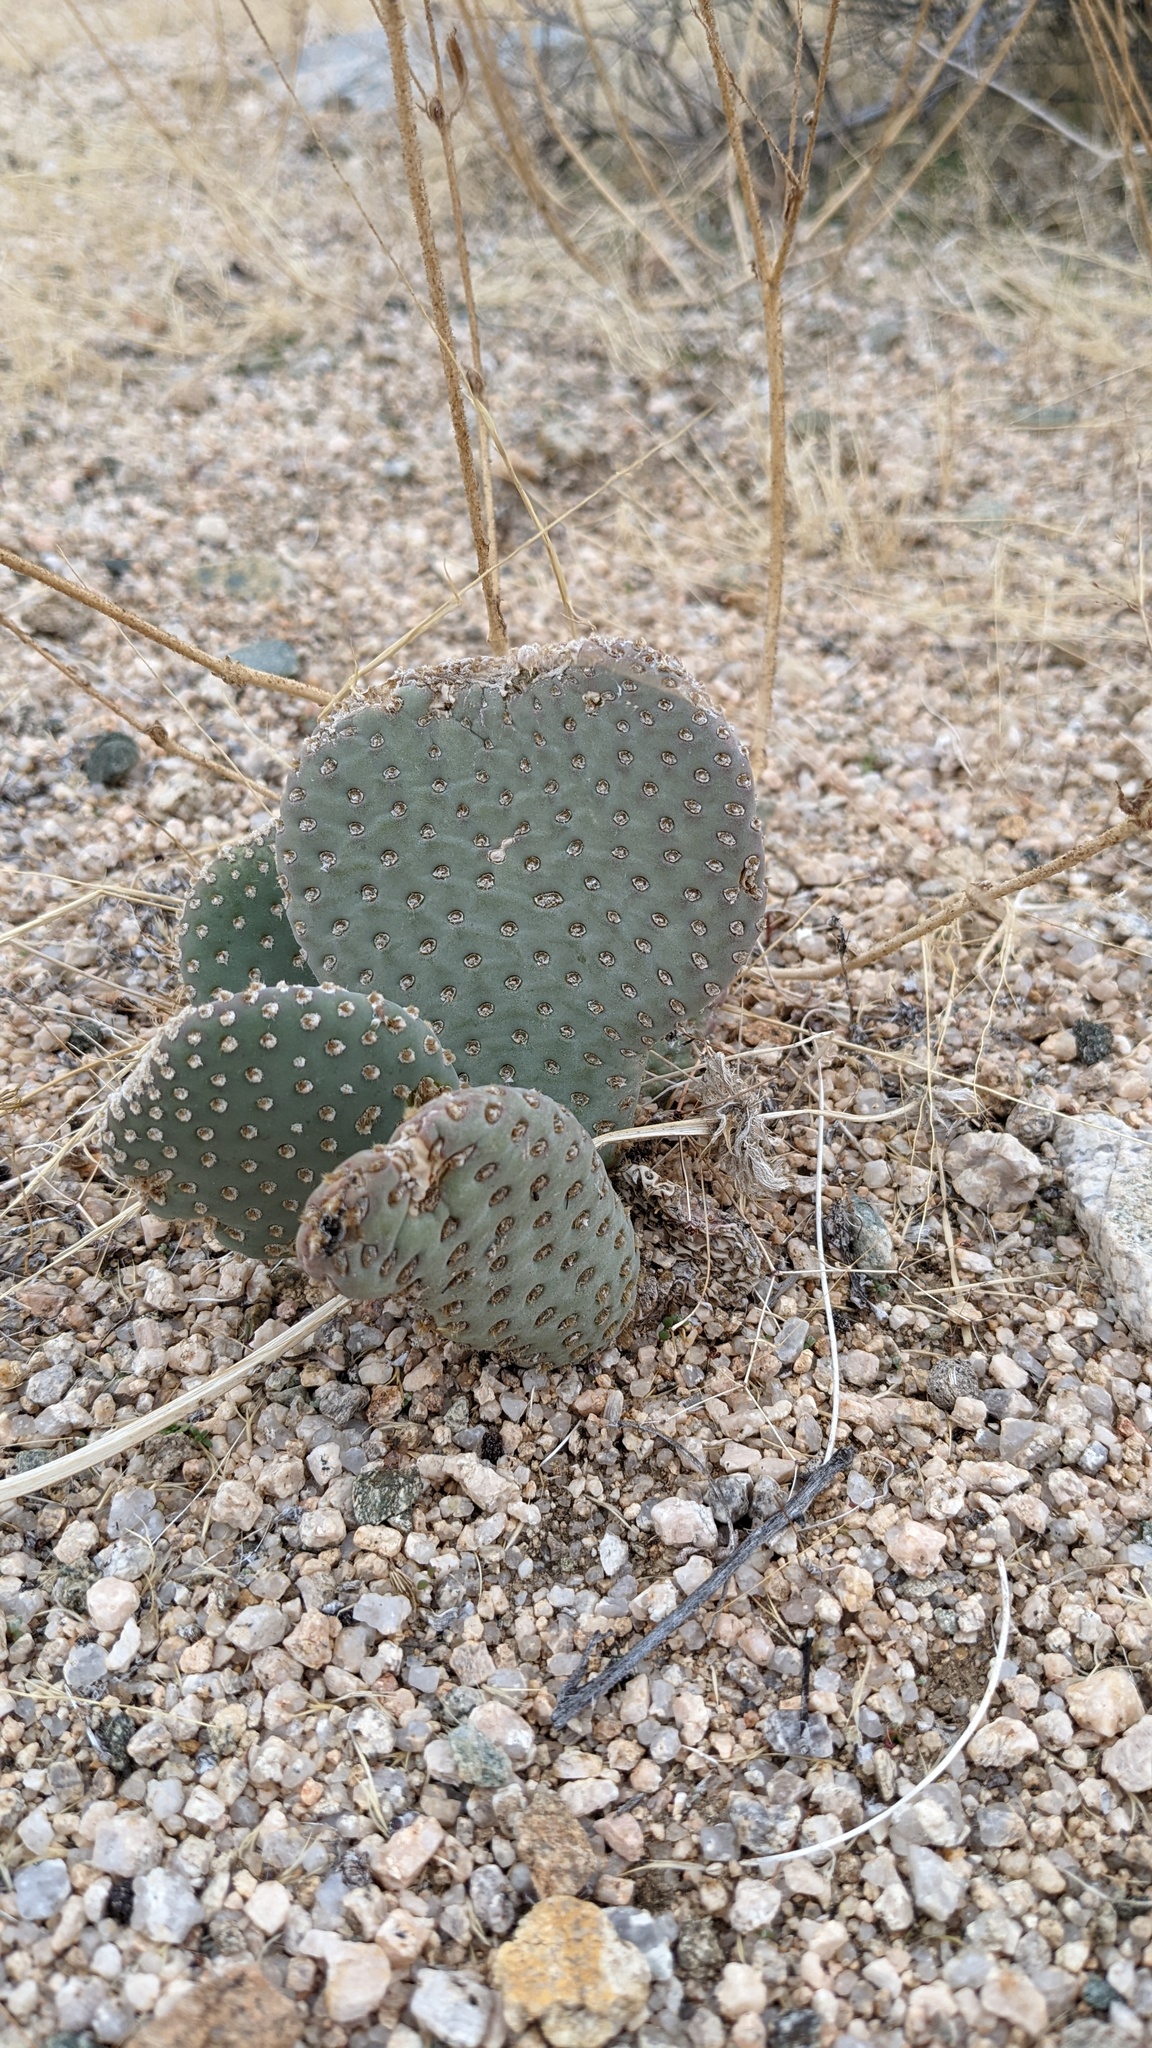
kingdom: Plantae
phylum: Tracheophyta
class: Magnoliopsida
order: Caryophyllales
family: Cactaceae
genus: Opuntia
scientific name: Opuntia basilaris
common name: Beavertail prickly-pear
